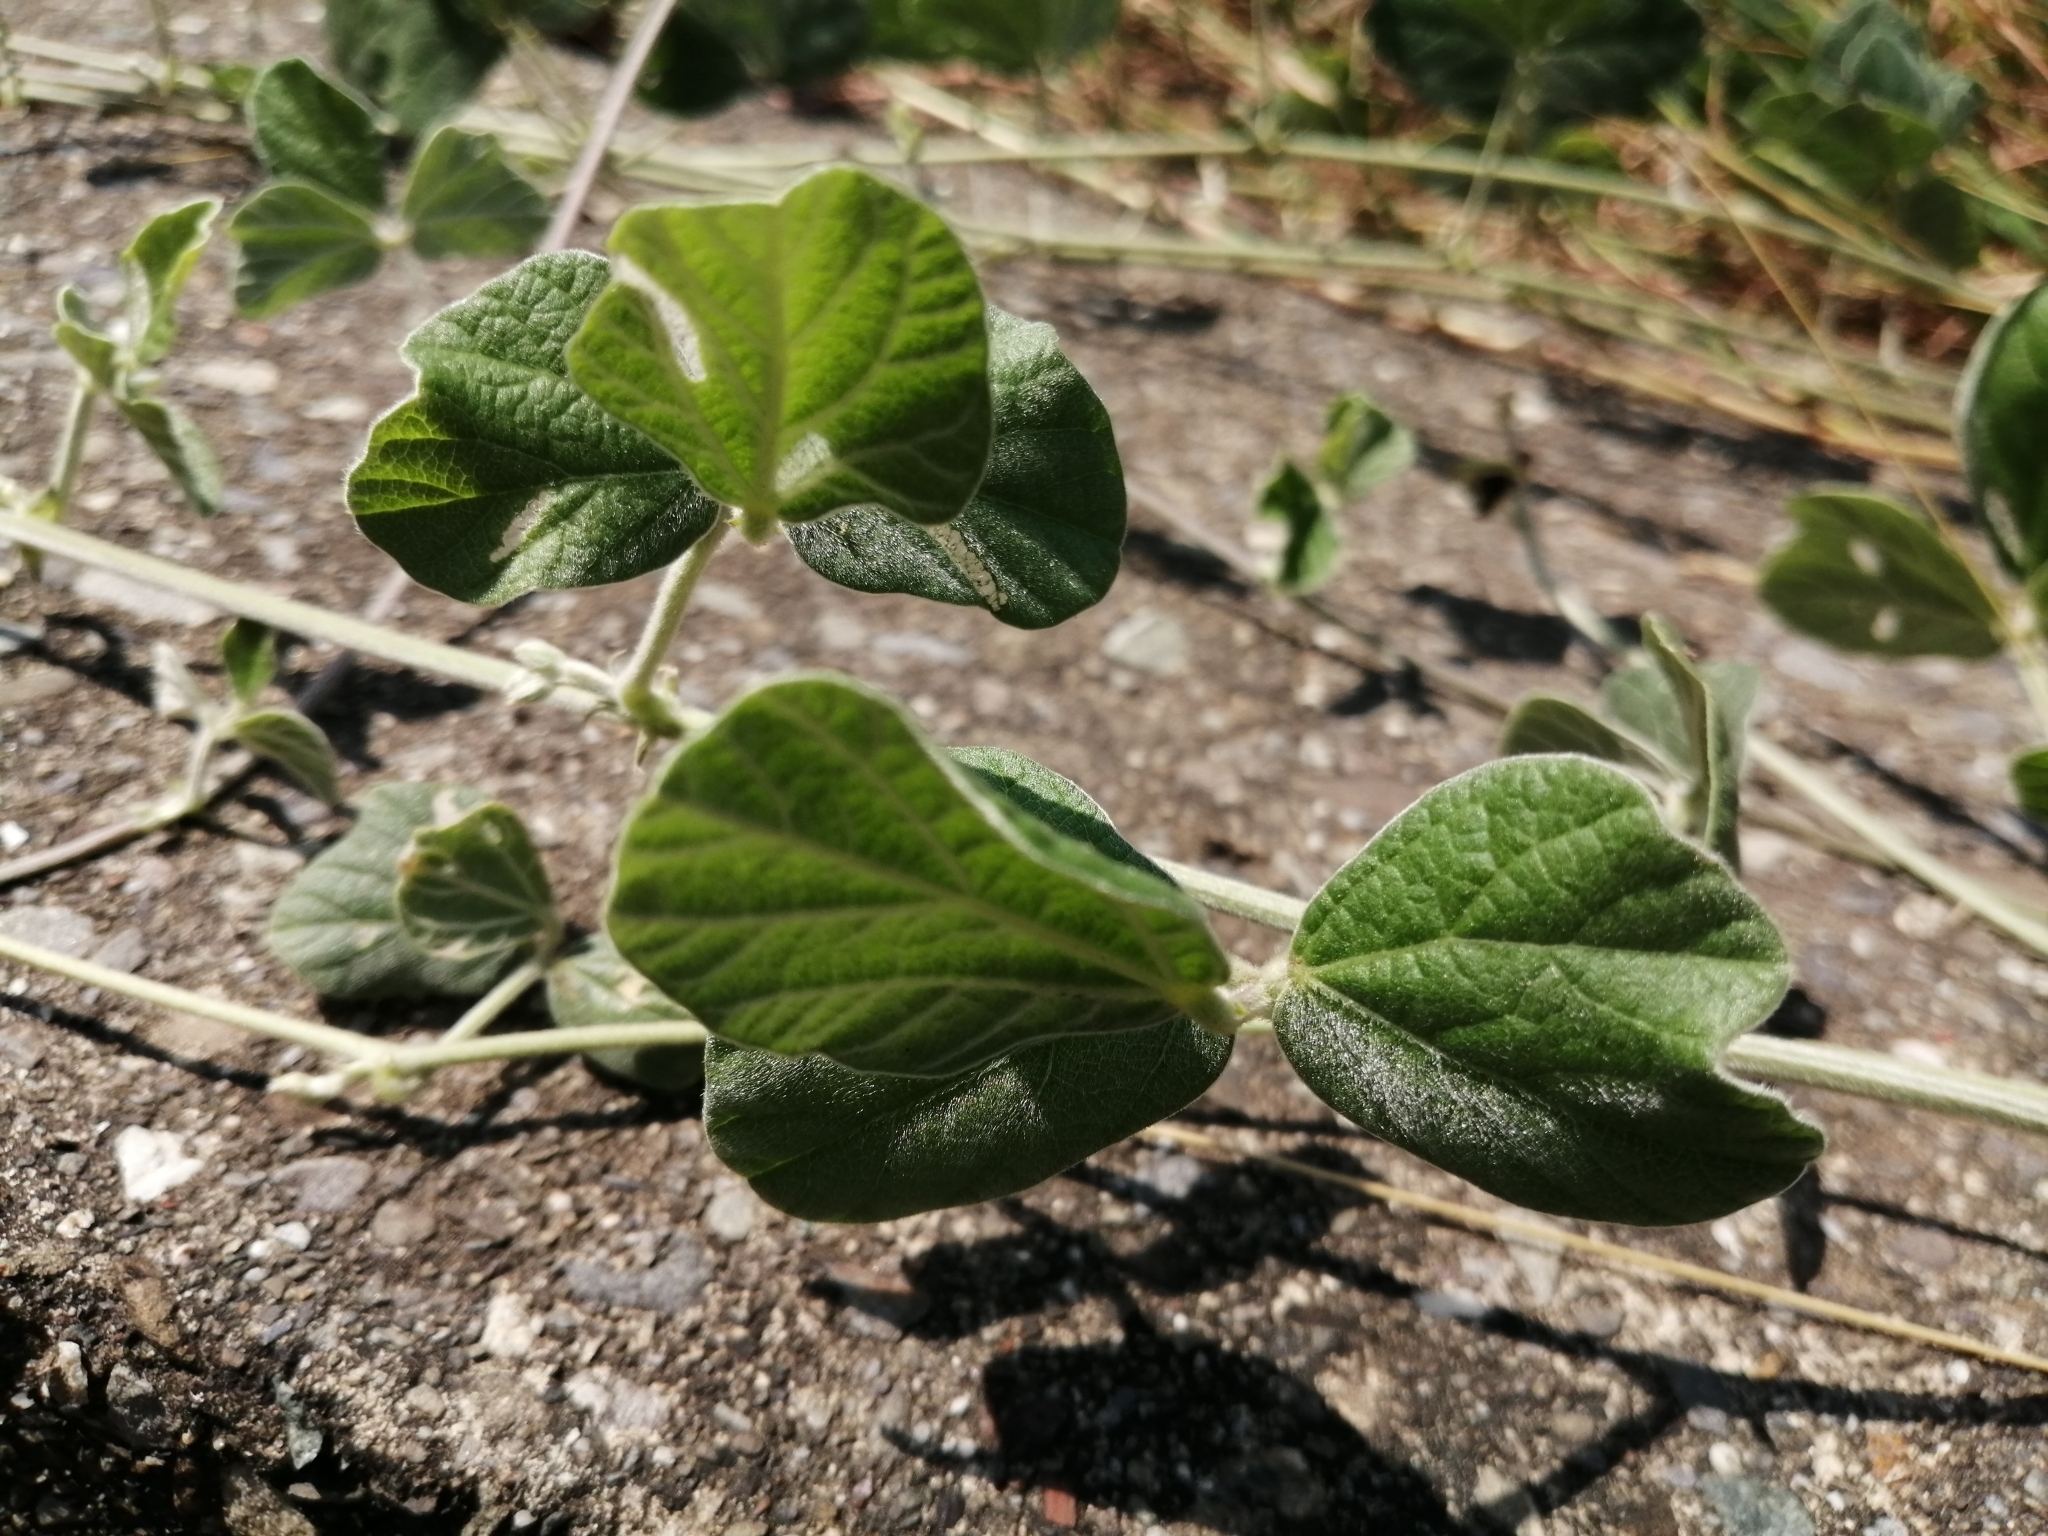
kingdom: Plantae
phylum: Tracheophyta
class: Magnoliopsida
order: Fabales
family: Fabaceae
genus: Macroptilium
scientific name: Macroptilium atropurpureum
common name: Purple bushbean
